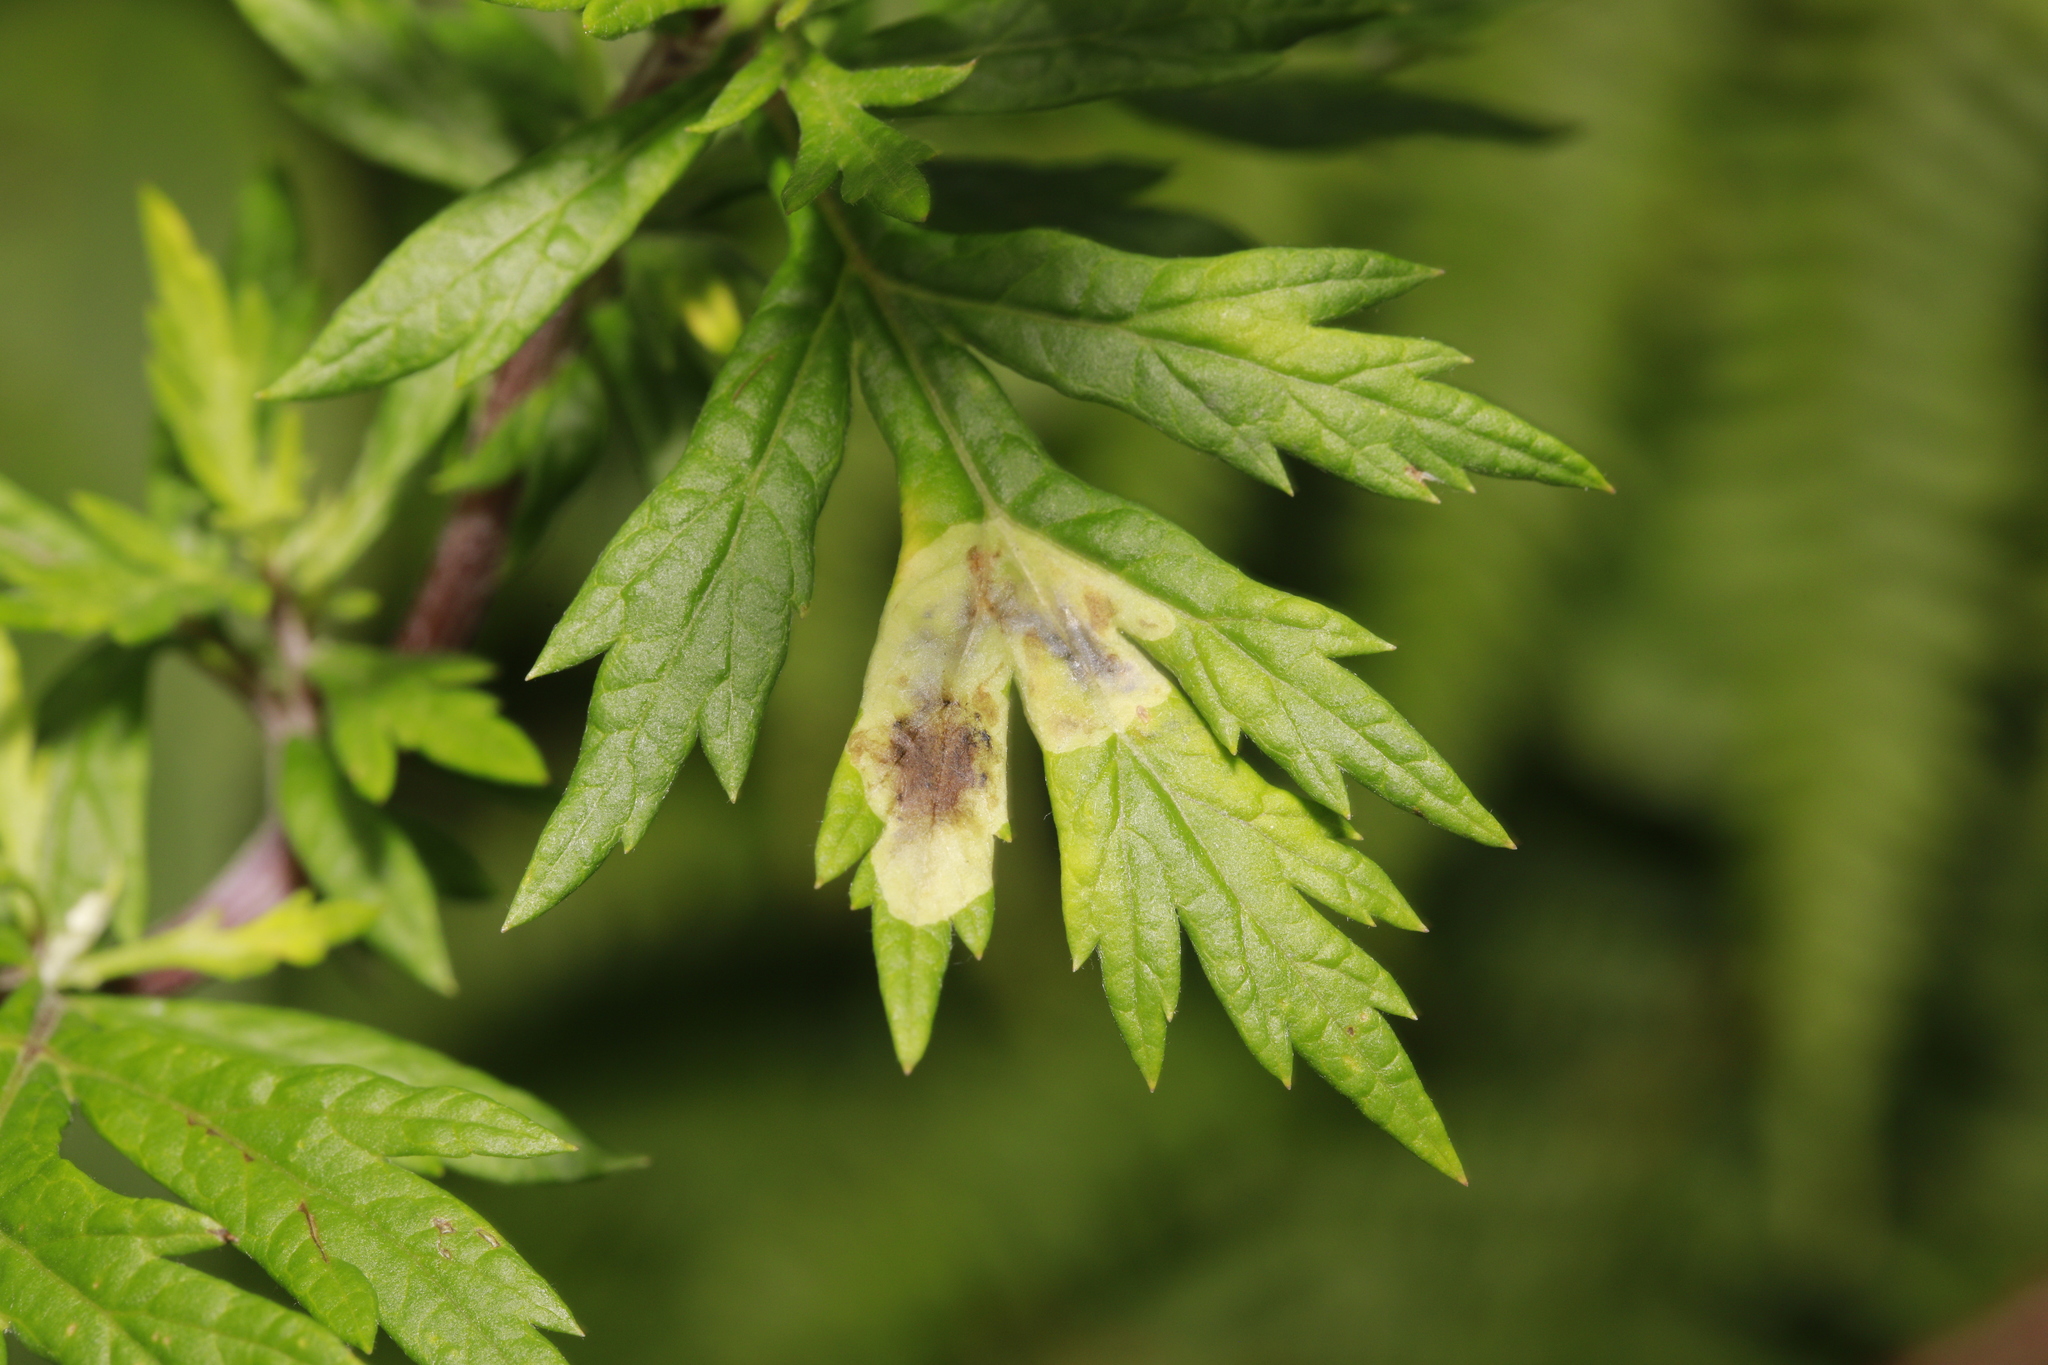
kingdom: Animalia
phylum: Arthropoda
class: Insecta
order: Diptera
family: Tephritidae
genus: Trypeta
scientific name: Trypeta artemisiae
